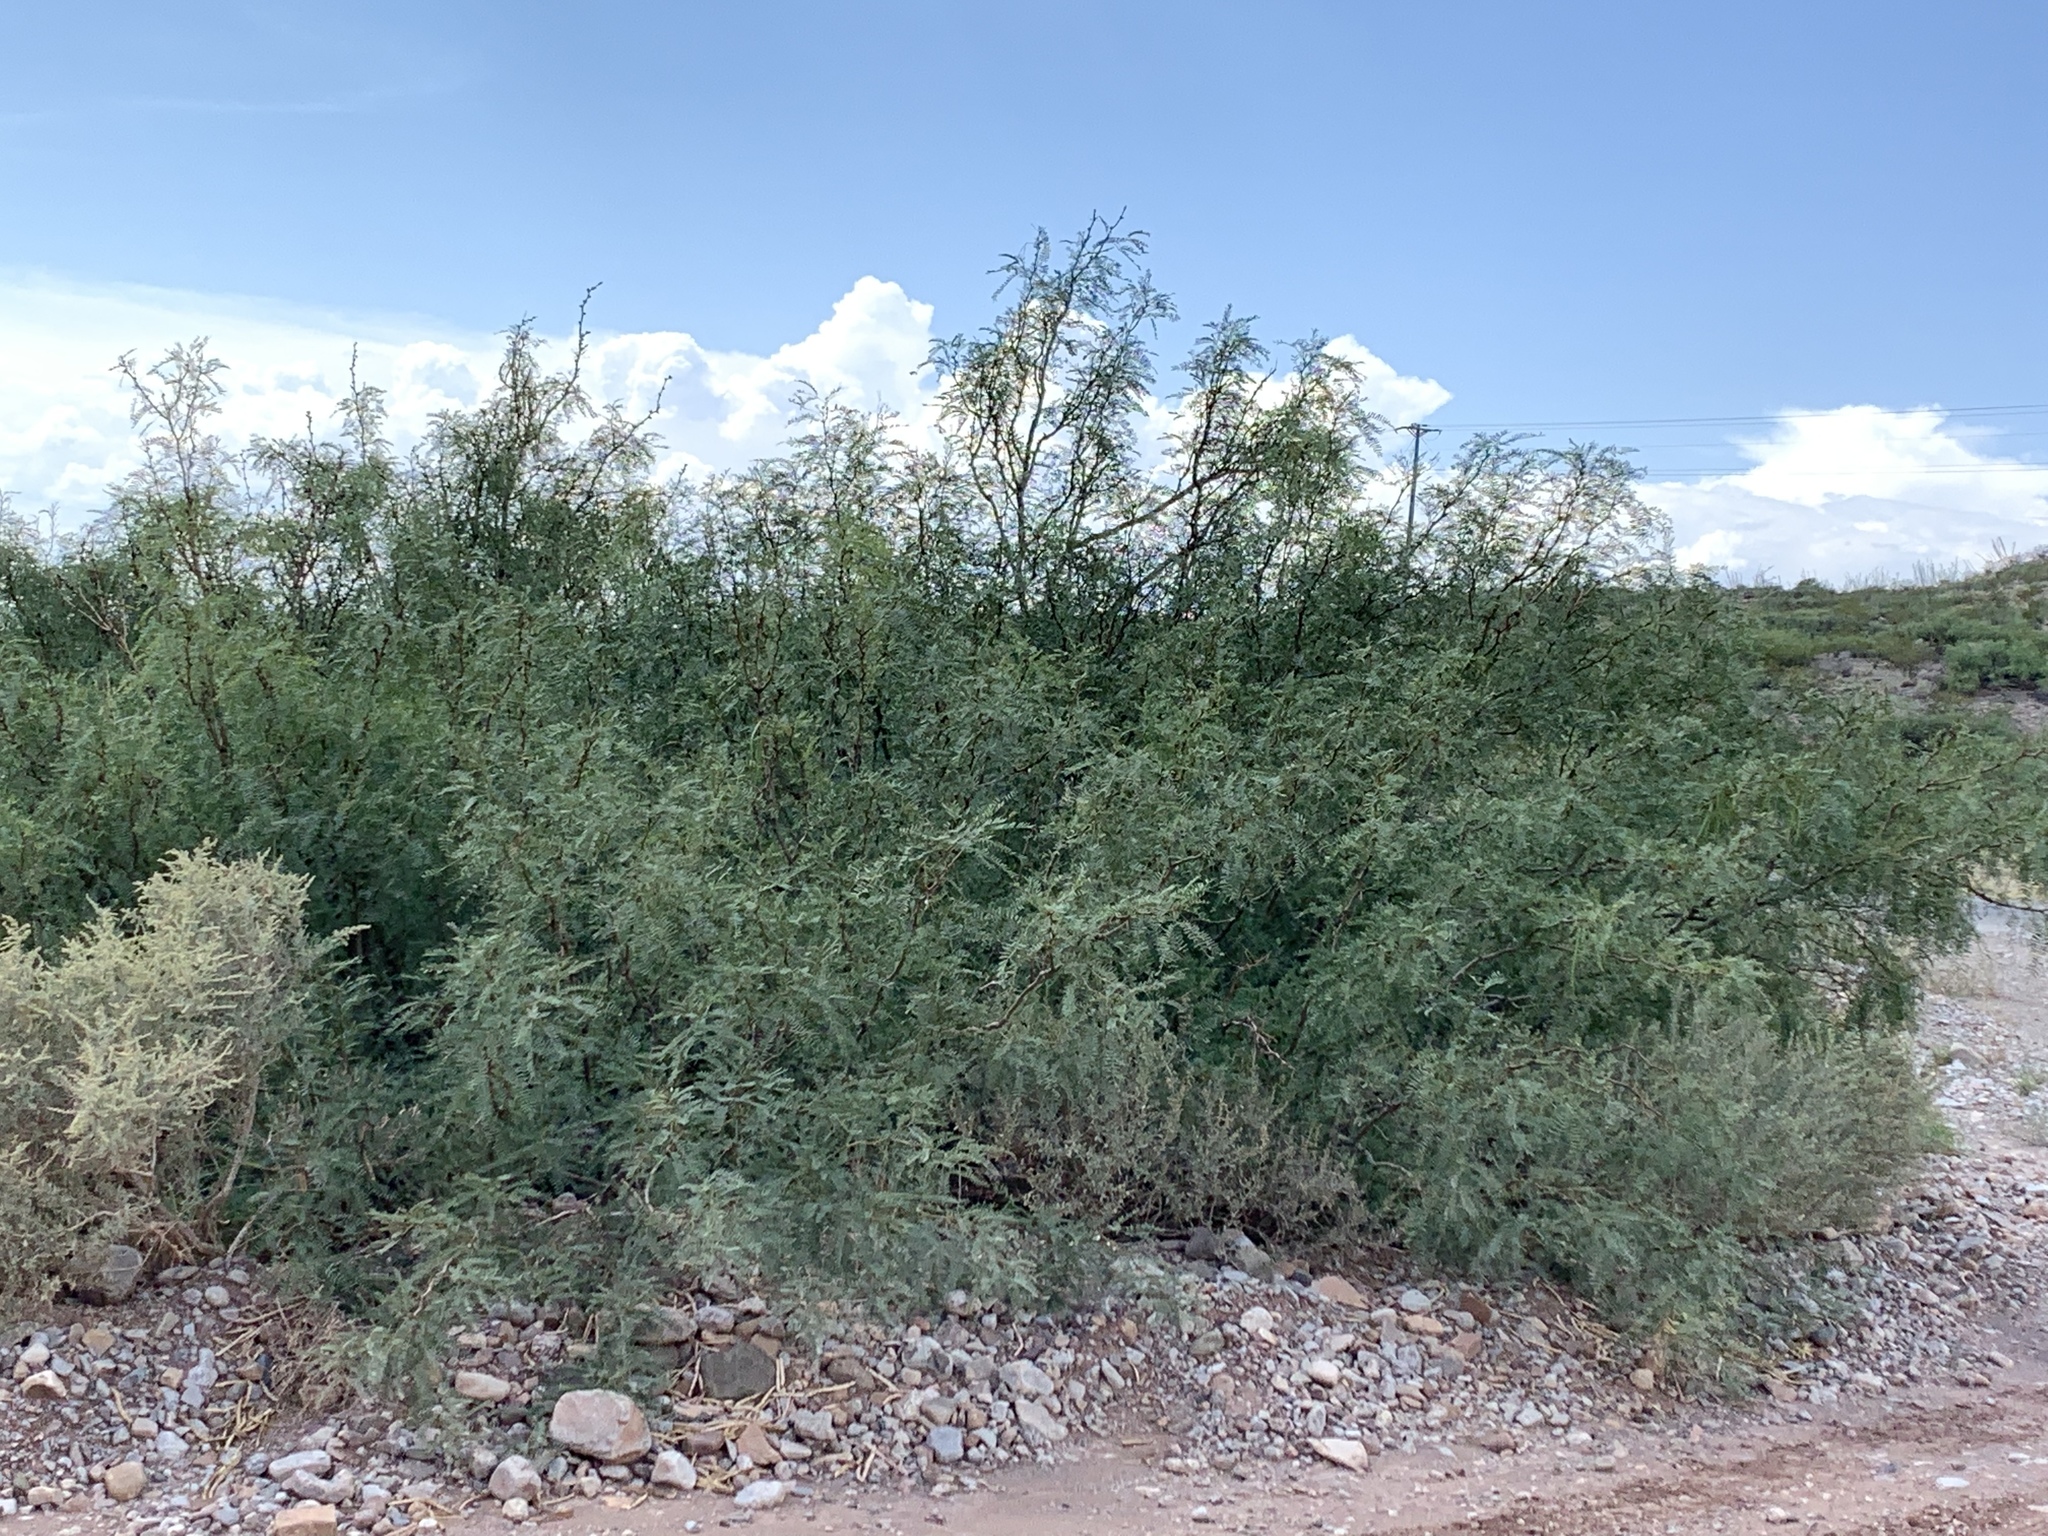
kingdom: Plantae
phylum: Tracheophyta
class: Magnoliopsida
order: Fabales
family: Fabaceae
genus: Prosopis
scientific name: Prosopis glandulosa
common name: Honey mesquite
